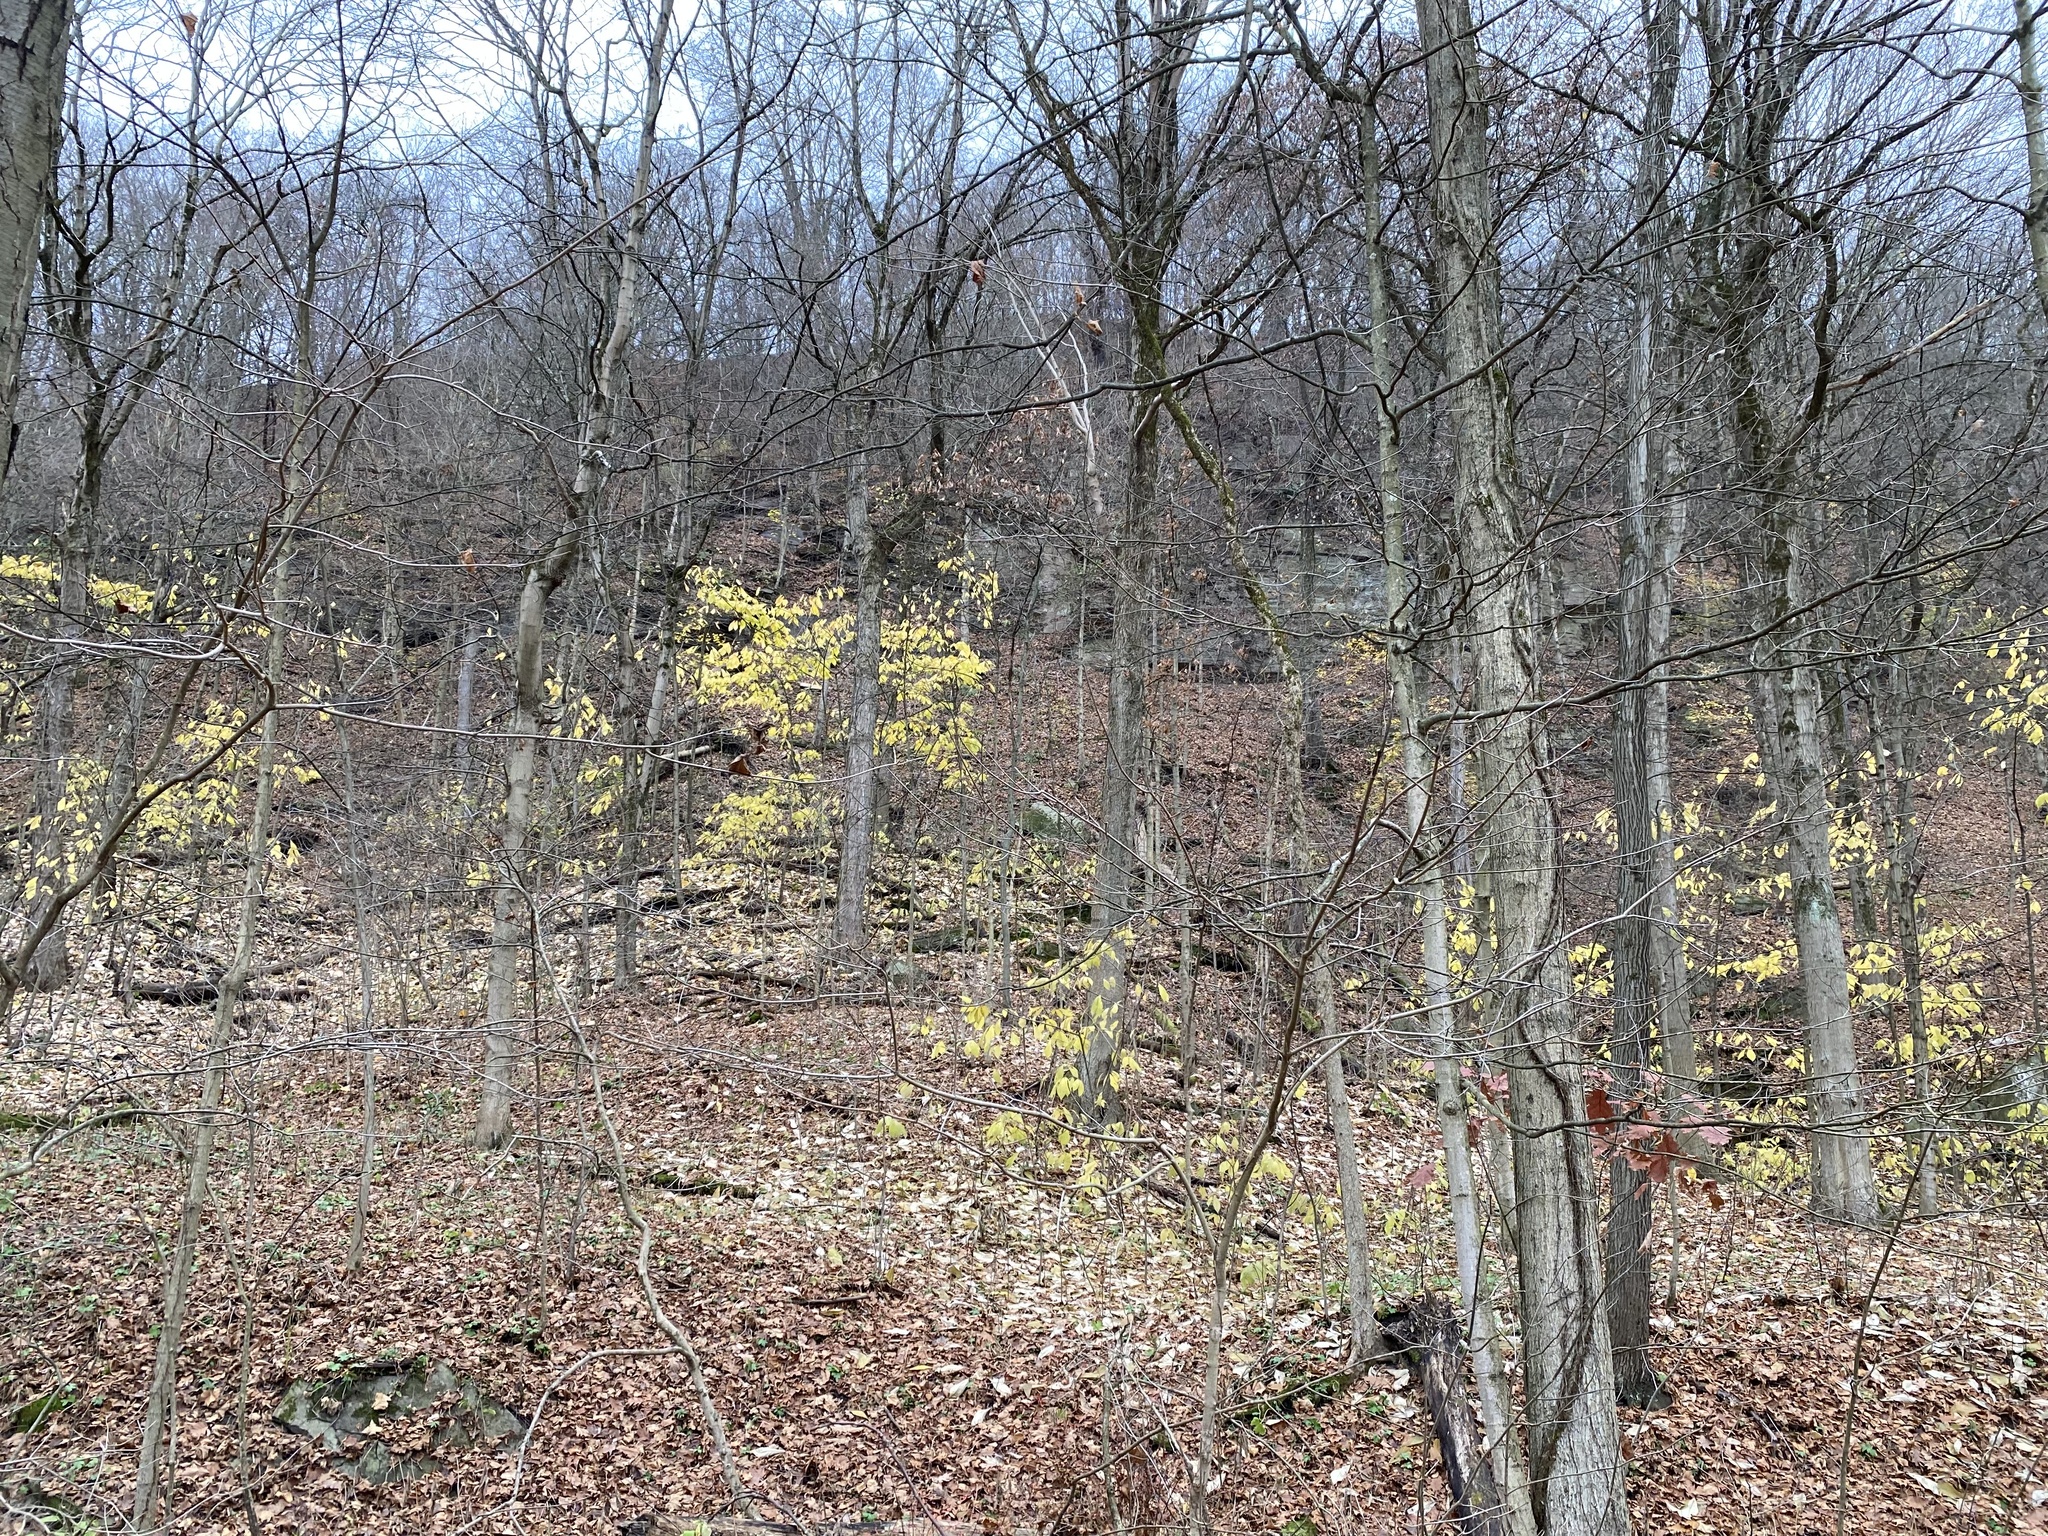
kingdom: Plantae
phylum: Tracheophyta
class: Magnoliopsida
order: Magnoliales
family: Annonaceae
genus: Asimina
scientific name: Asimina triloba
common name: Dog-banana
